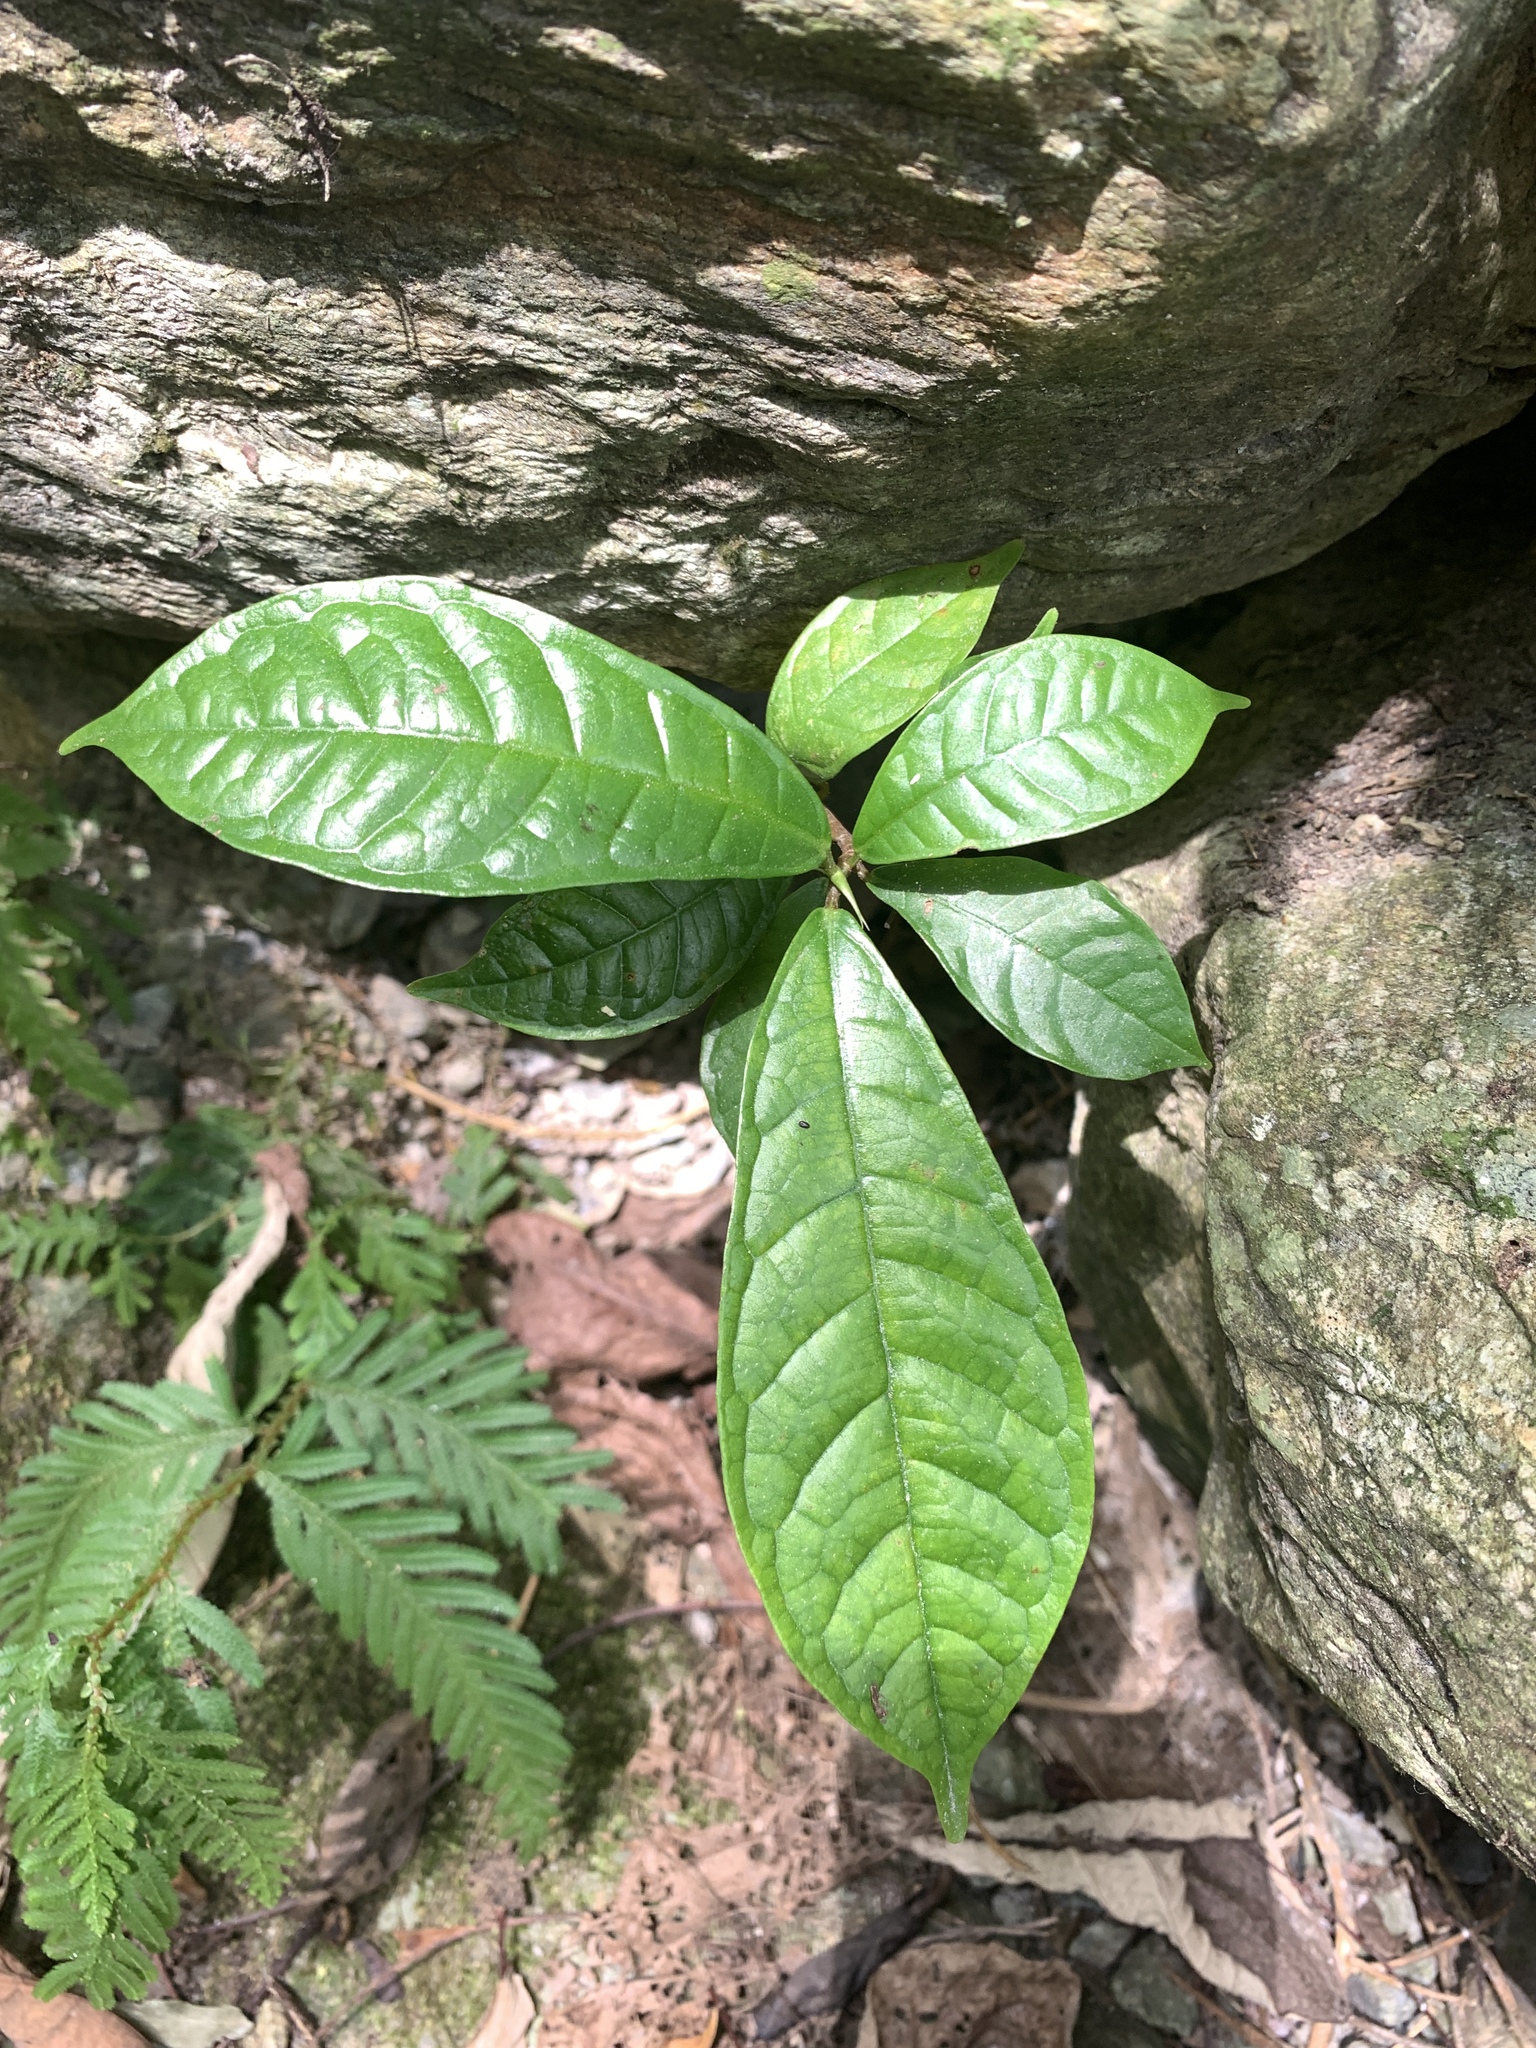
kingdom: Plantae
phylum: Tracheophyta
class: Magnoliopsida
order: Rosales
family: Moraceae
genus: Ficus
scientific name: Ficus nervosa
